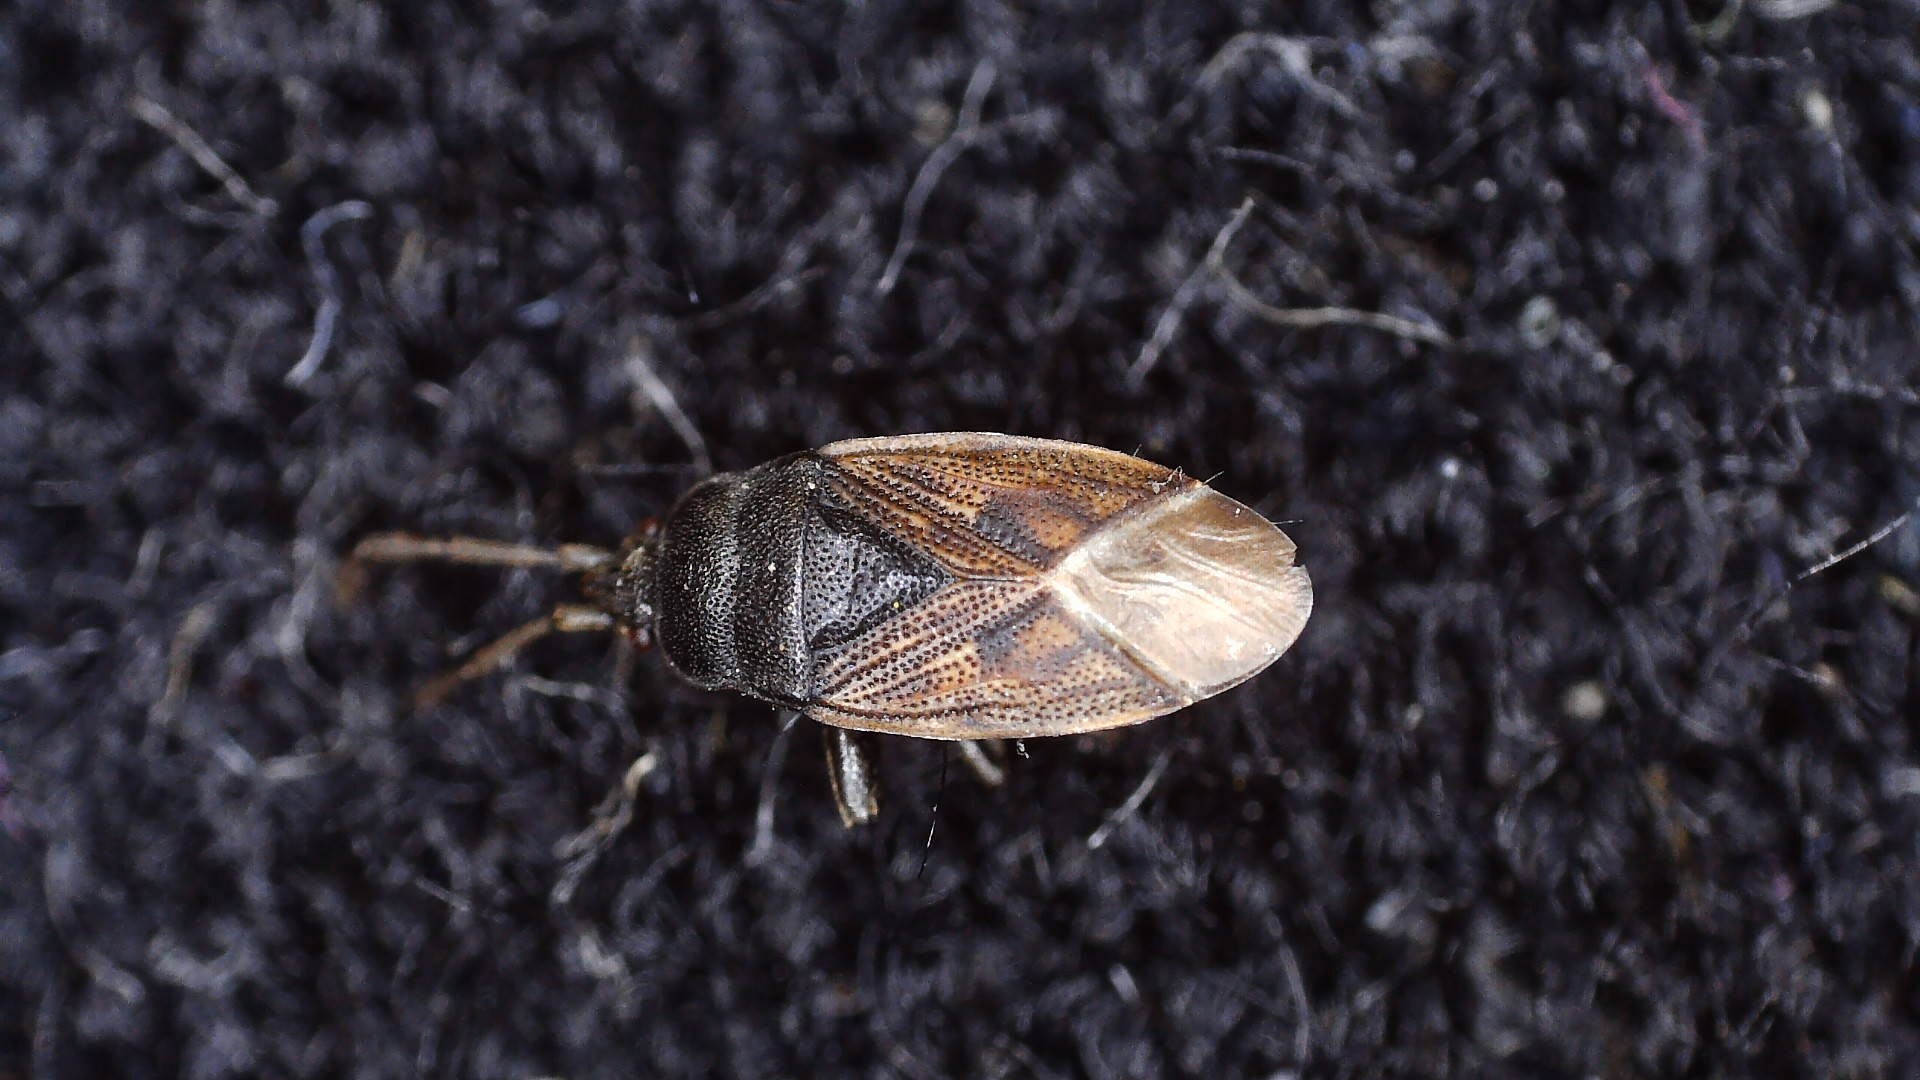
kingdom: Animalia
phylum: Arthropoda
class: Insecta
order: Hemiptera
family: Rhyparochromidae
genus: Drymus
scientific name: Drymus sylvaticus
